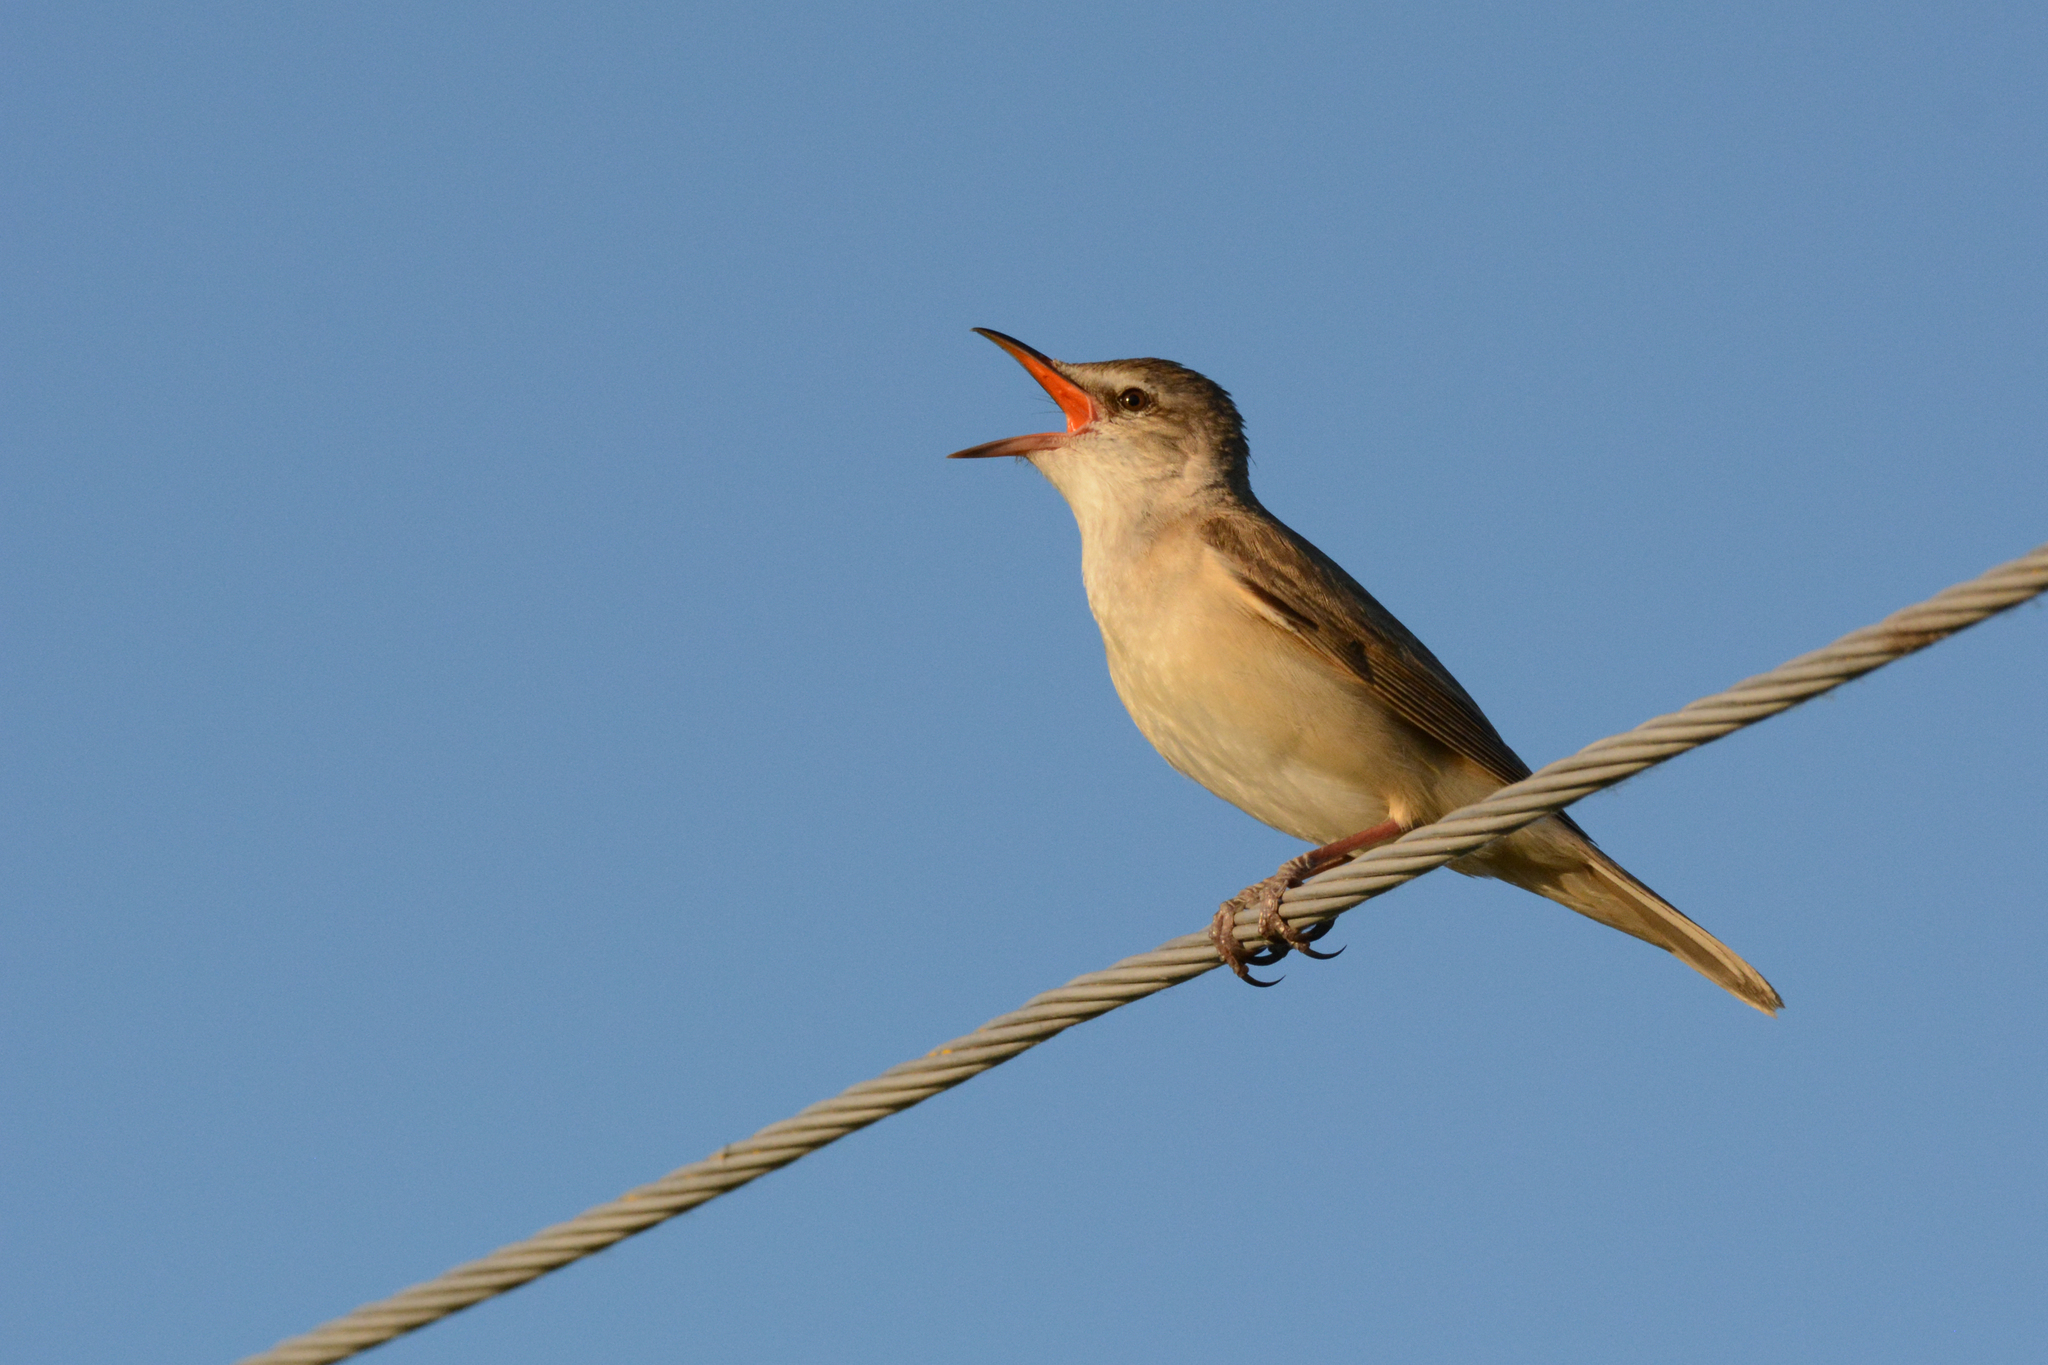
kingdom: Animalia
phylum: Chordata
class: Aves
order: Passeriformes
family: Acrocephalidae
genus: Acrocephalus
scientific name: Acrocephalus arundinaceus
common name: Great reed warbler
